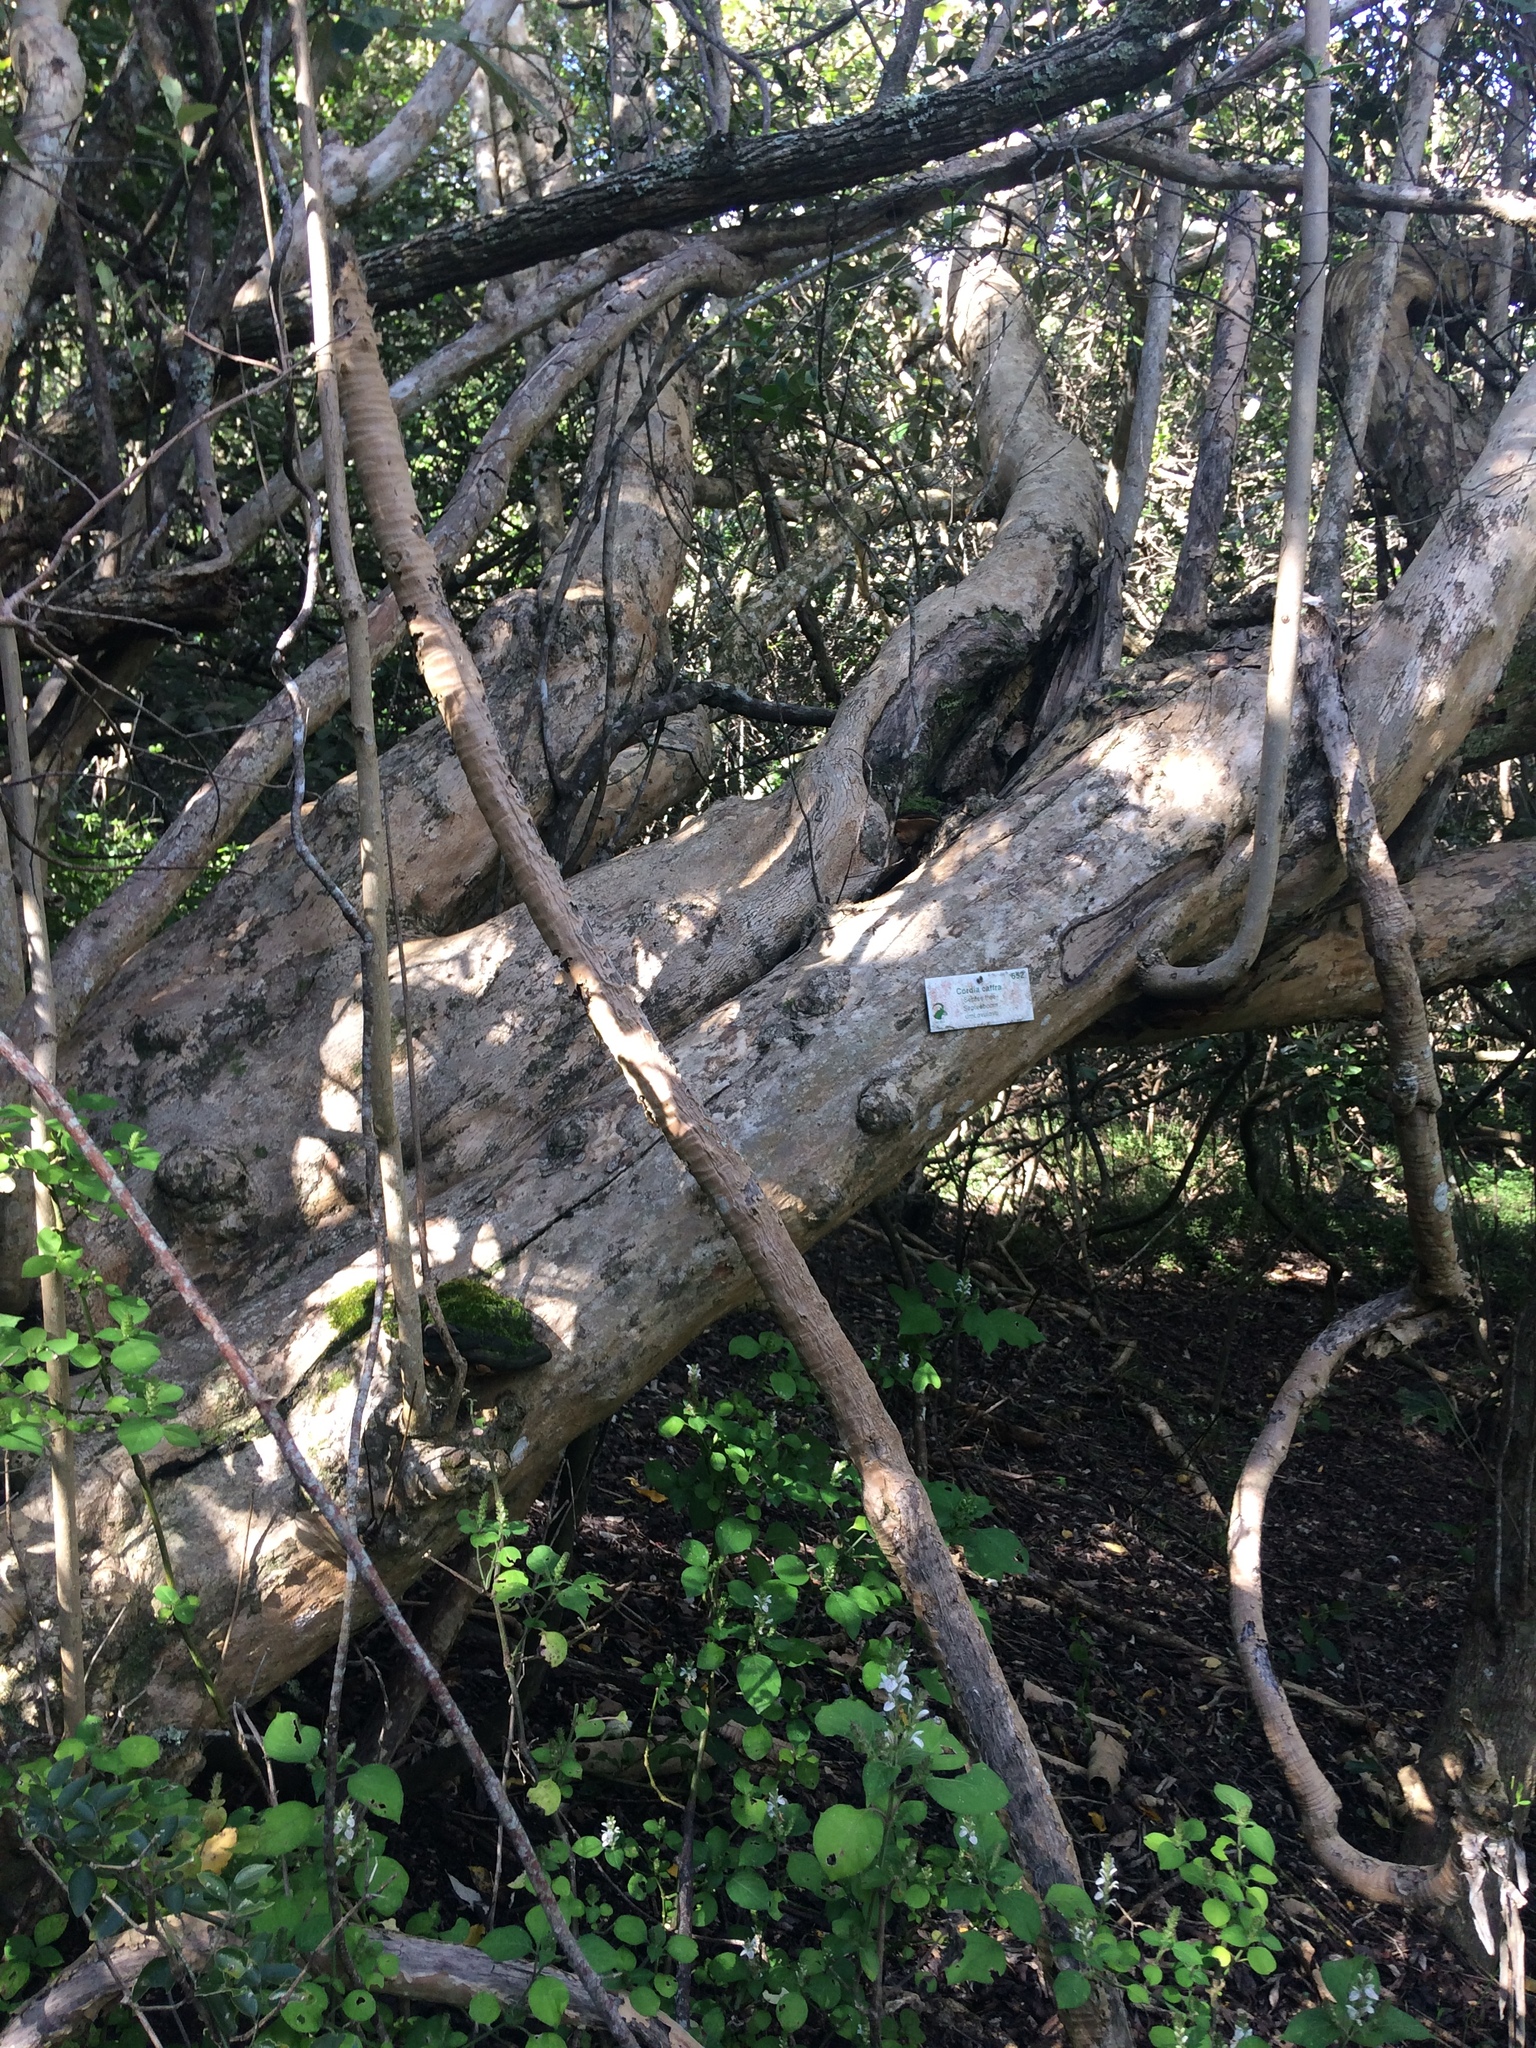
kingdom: Plantae
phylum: Tracheophyta
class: Magnoliopsida
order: Boraginales
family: Cordiaceae
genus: Cordia
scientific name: Cordia caffra
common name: Septee tree
